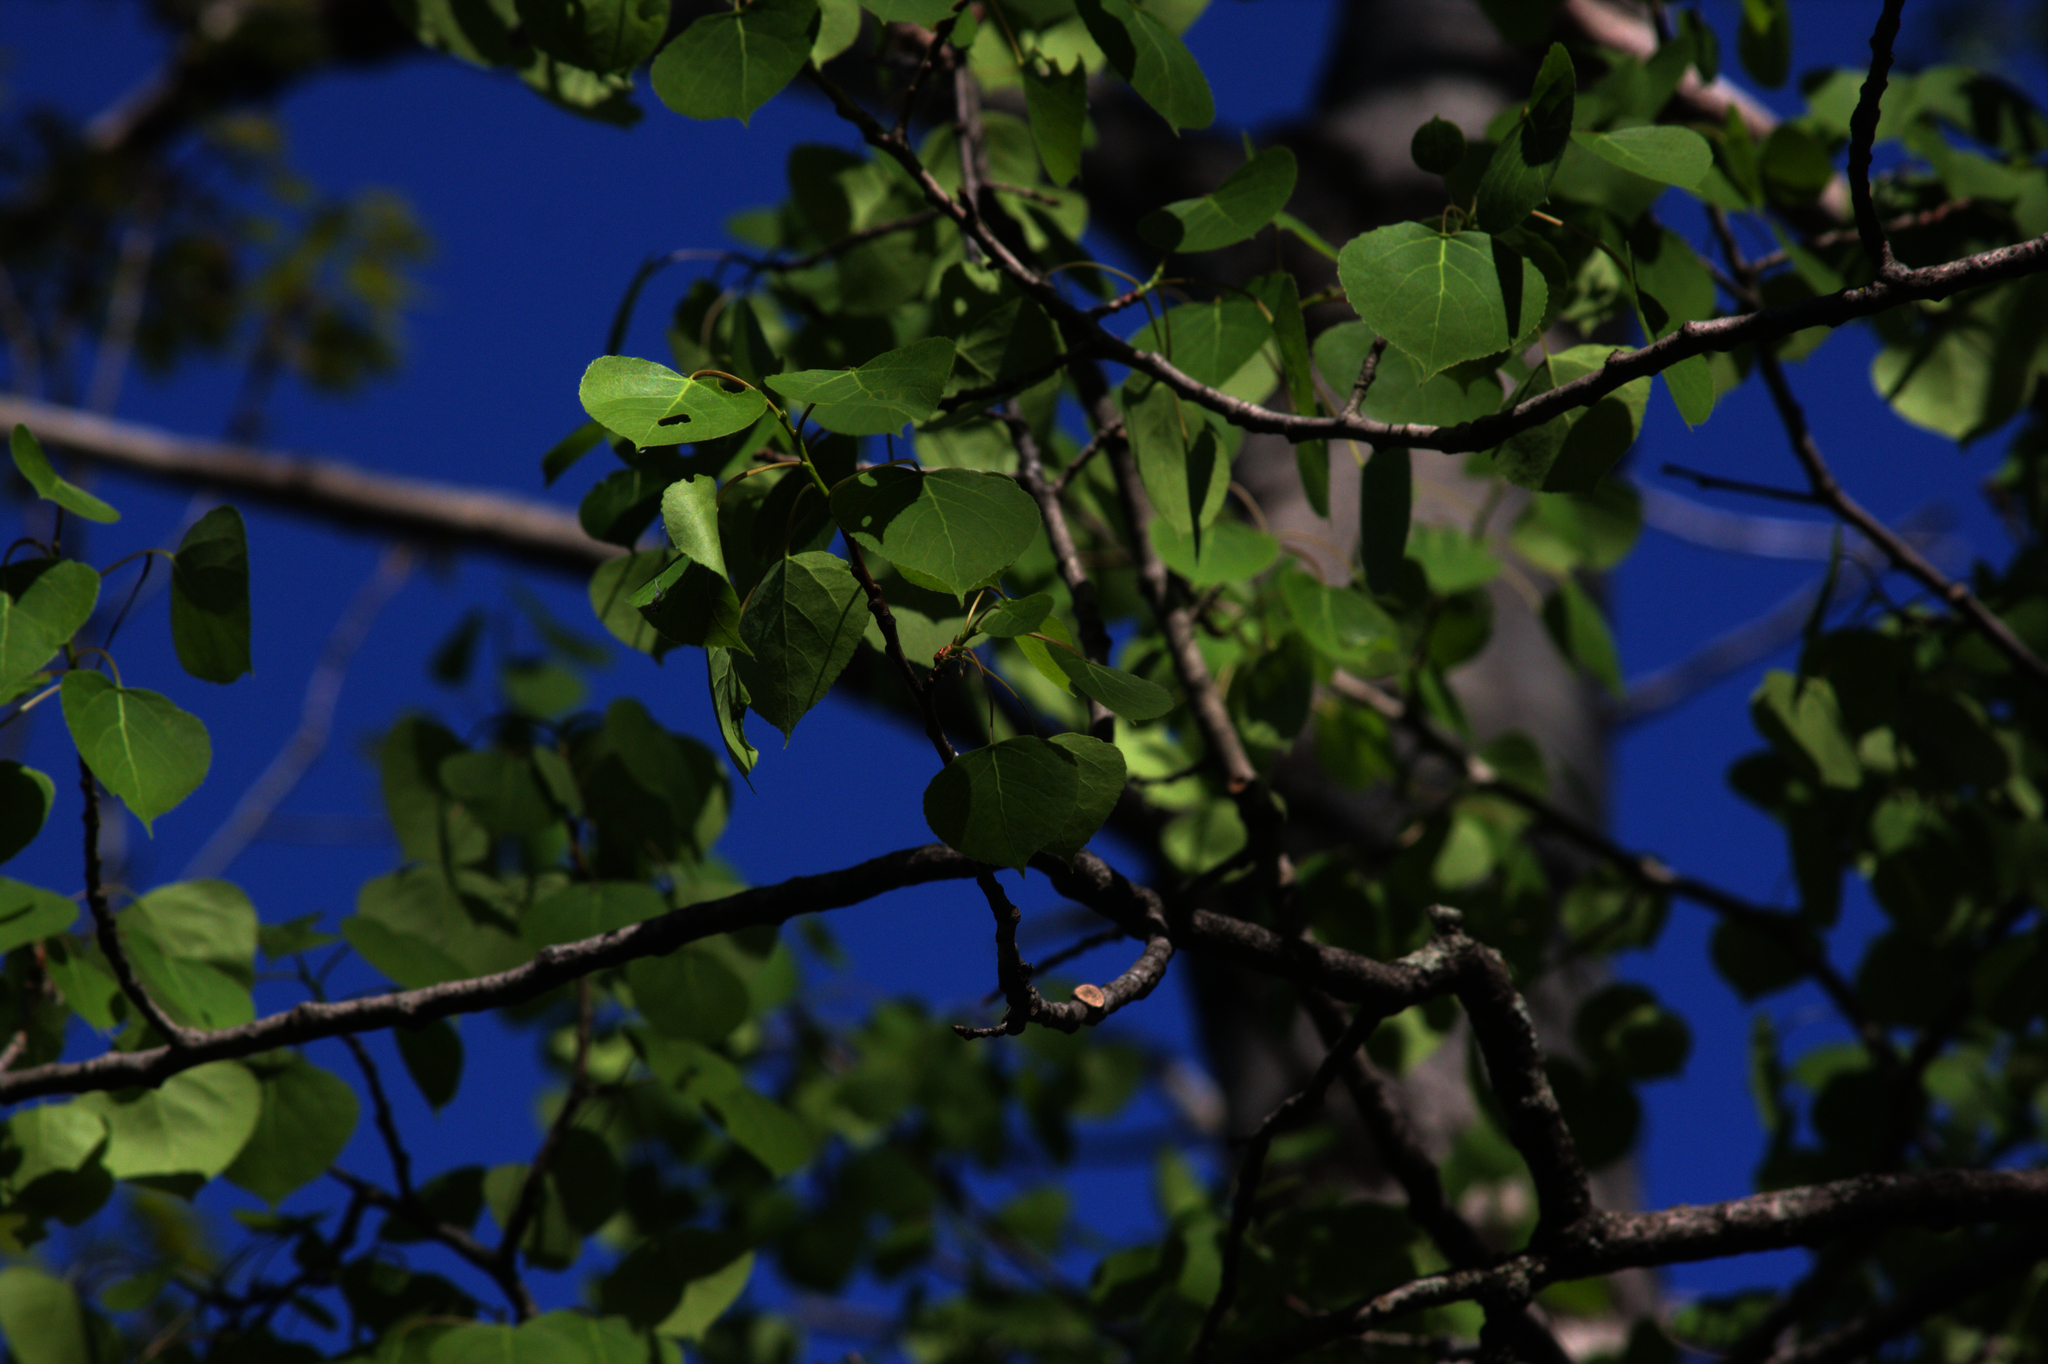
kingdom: Plantae
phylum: Tracheophyta
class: Magnoliopsida
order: Malpighiales
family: Salicaceae
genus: Populus
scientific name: Populus tremuloides
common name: Quaking aspen
